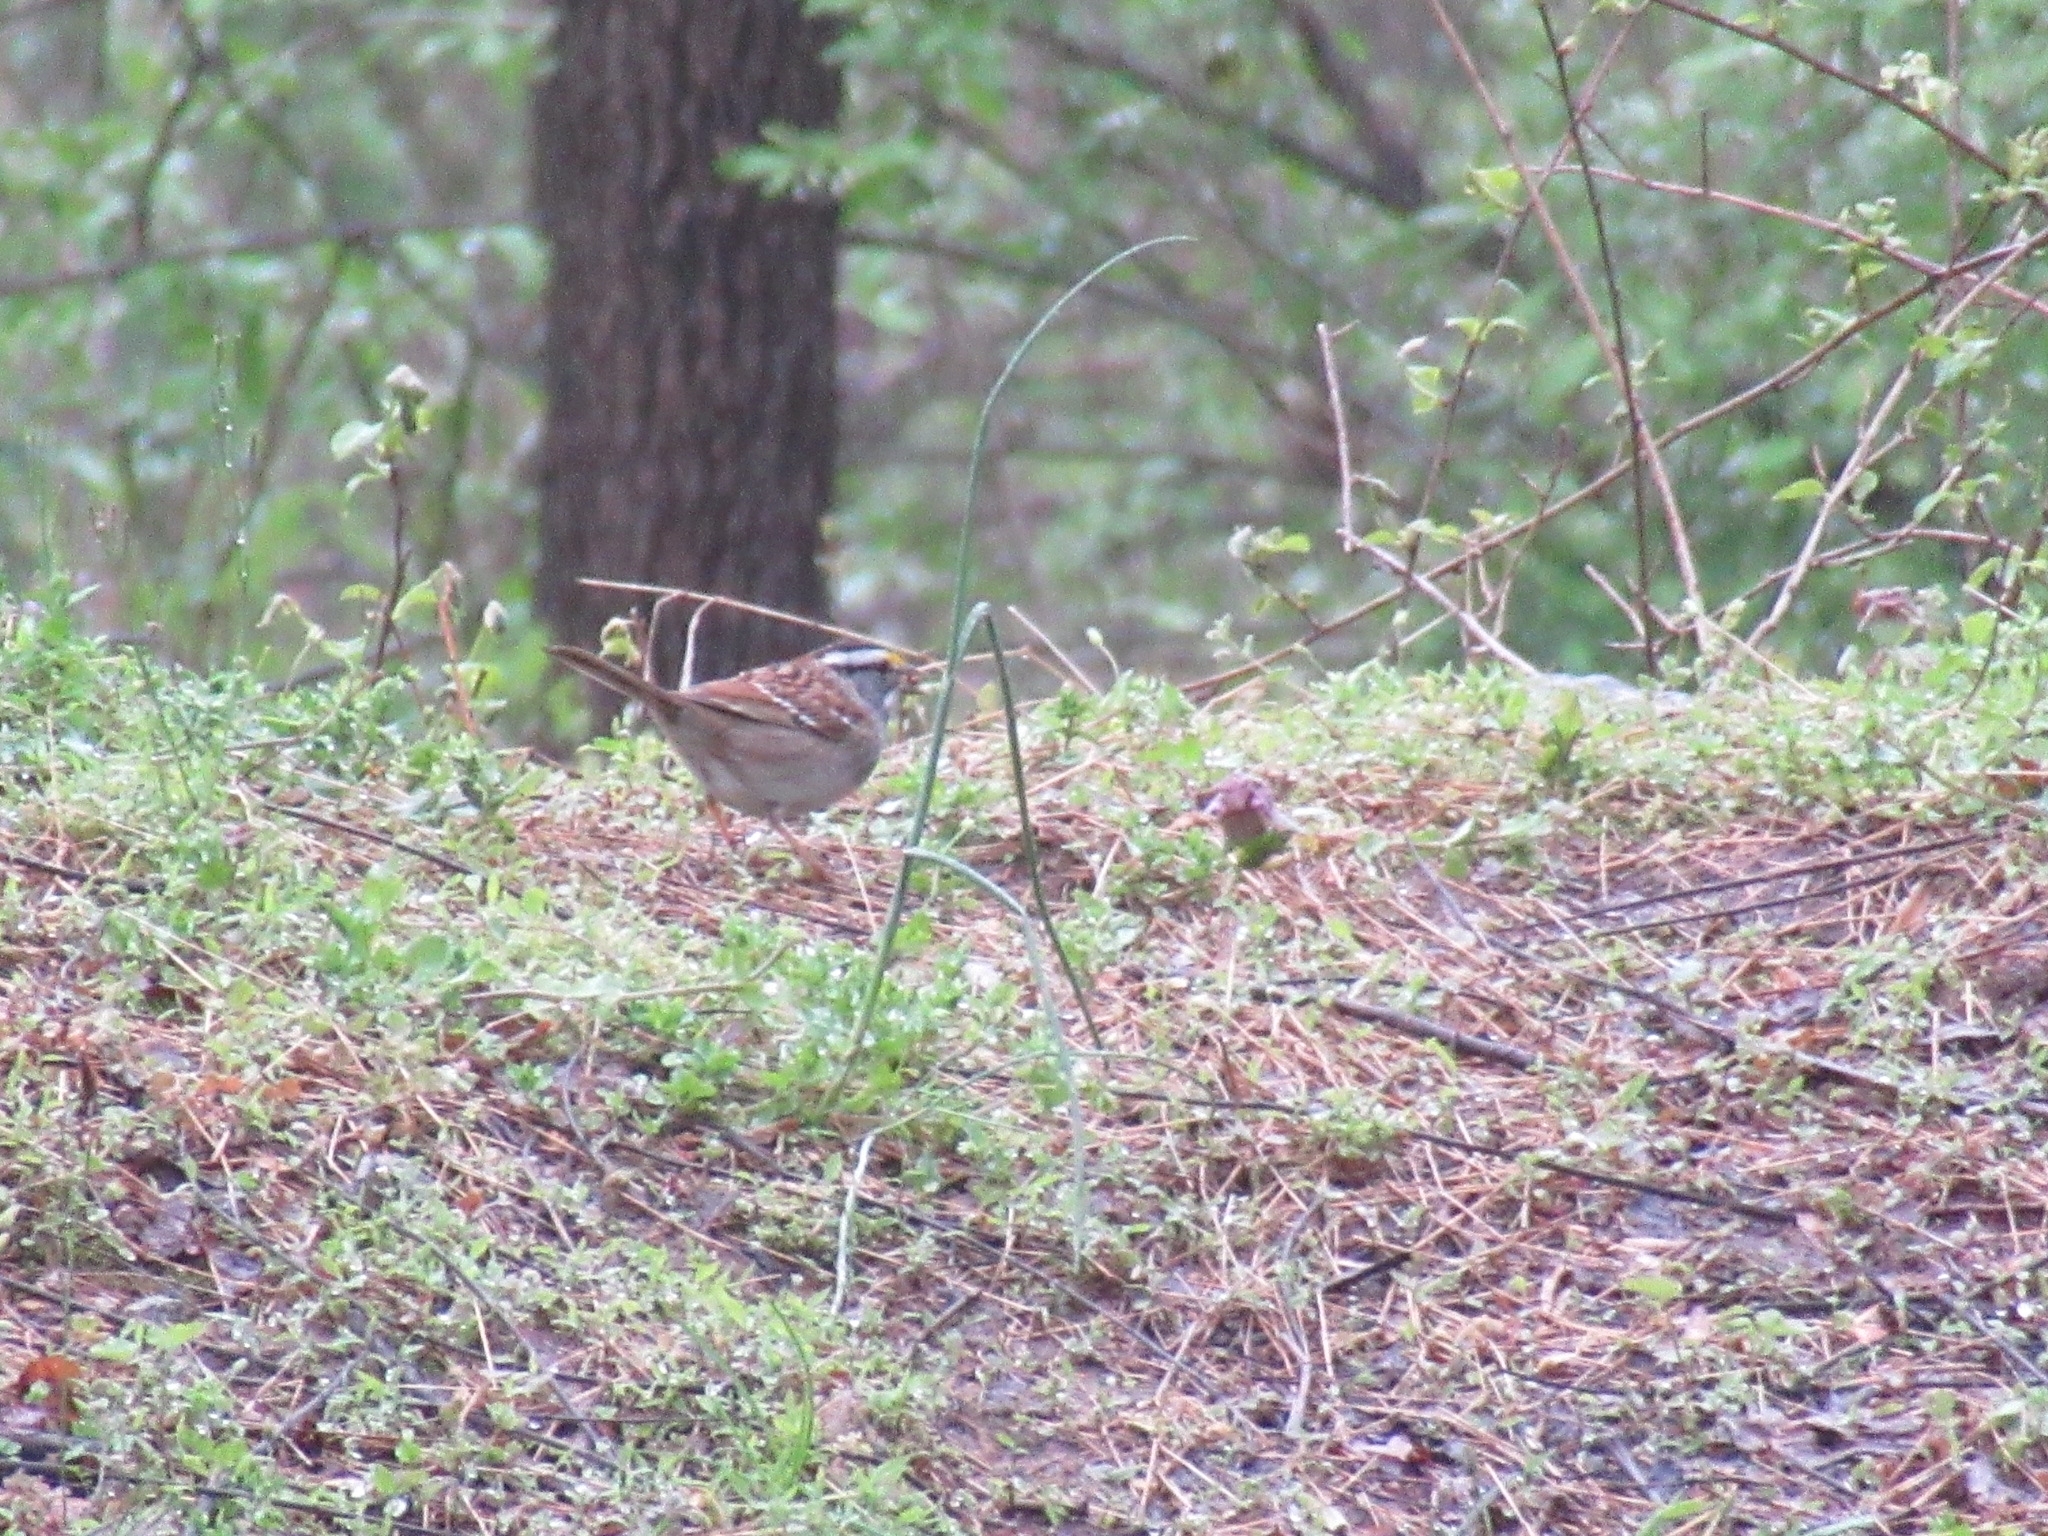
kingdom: Animalia
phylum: Chordata
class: Aves
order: Passeriformes
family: Passerellidae
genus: Zonotrichia
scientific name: Zonotrichia albicollis
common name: White-throated sparrow
